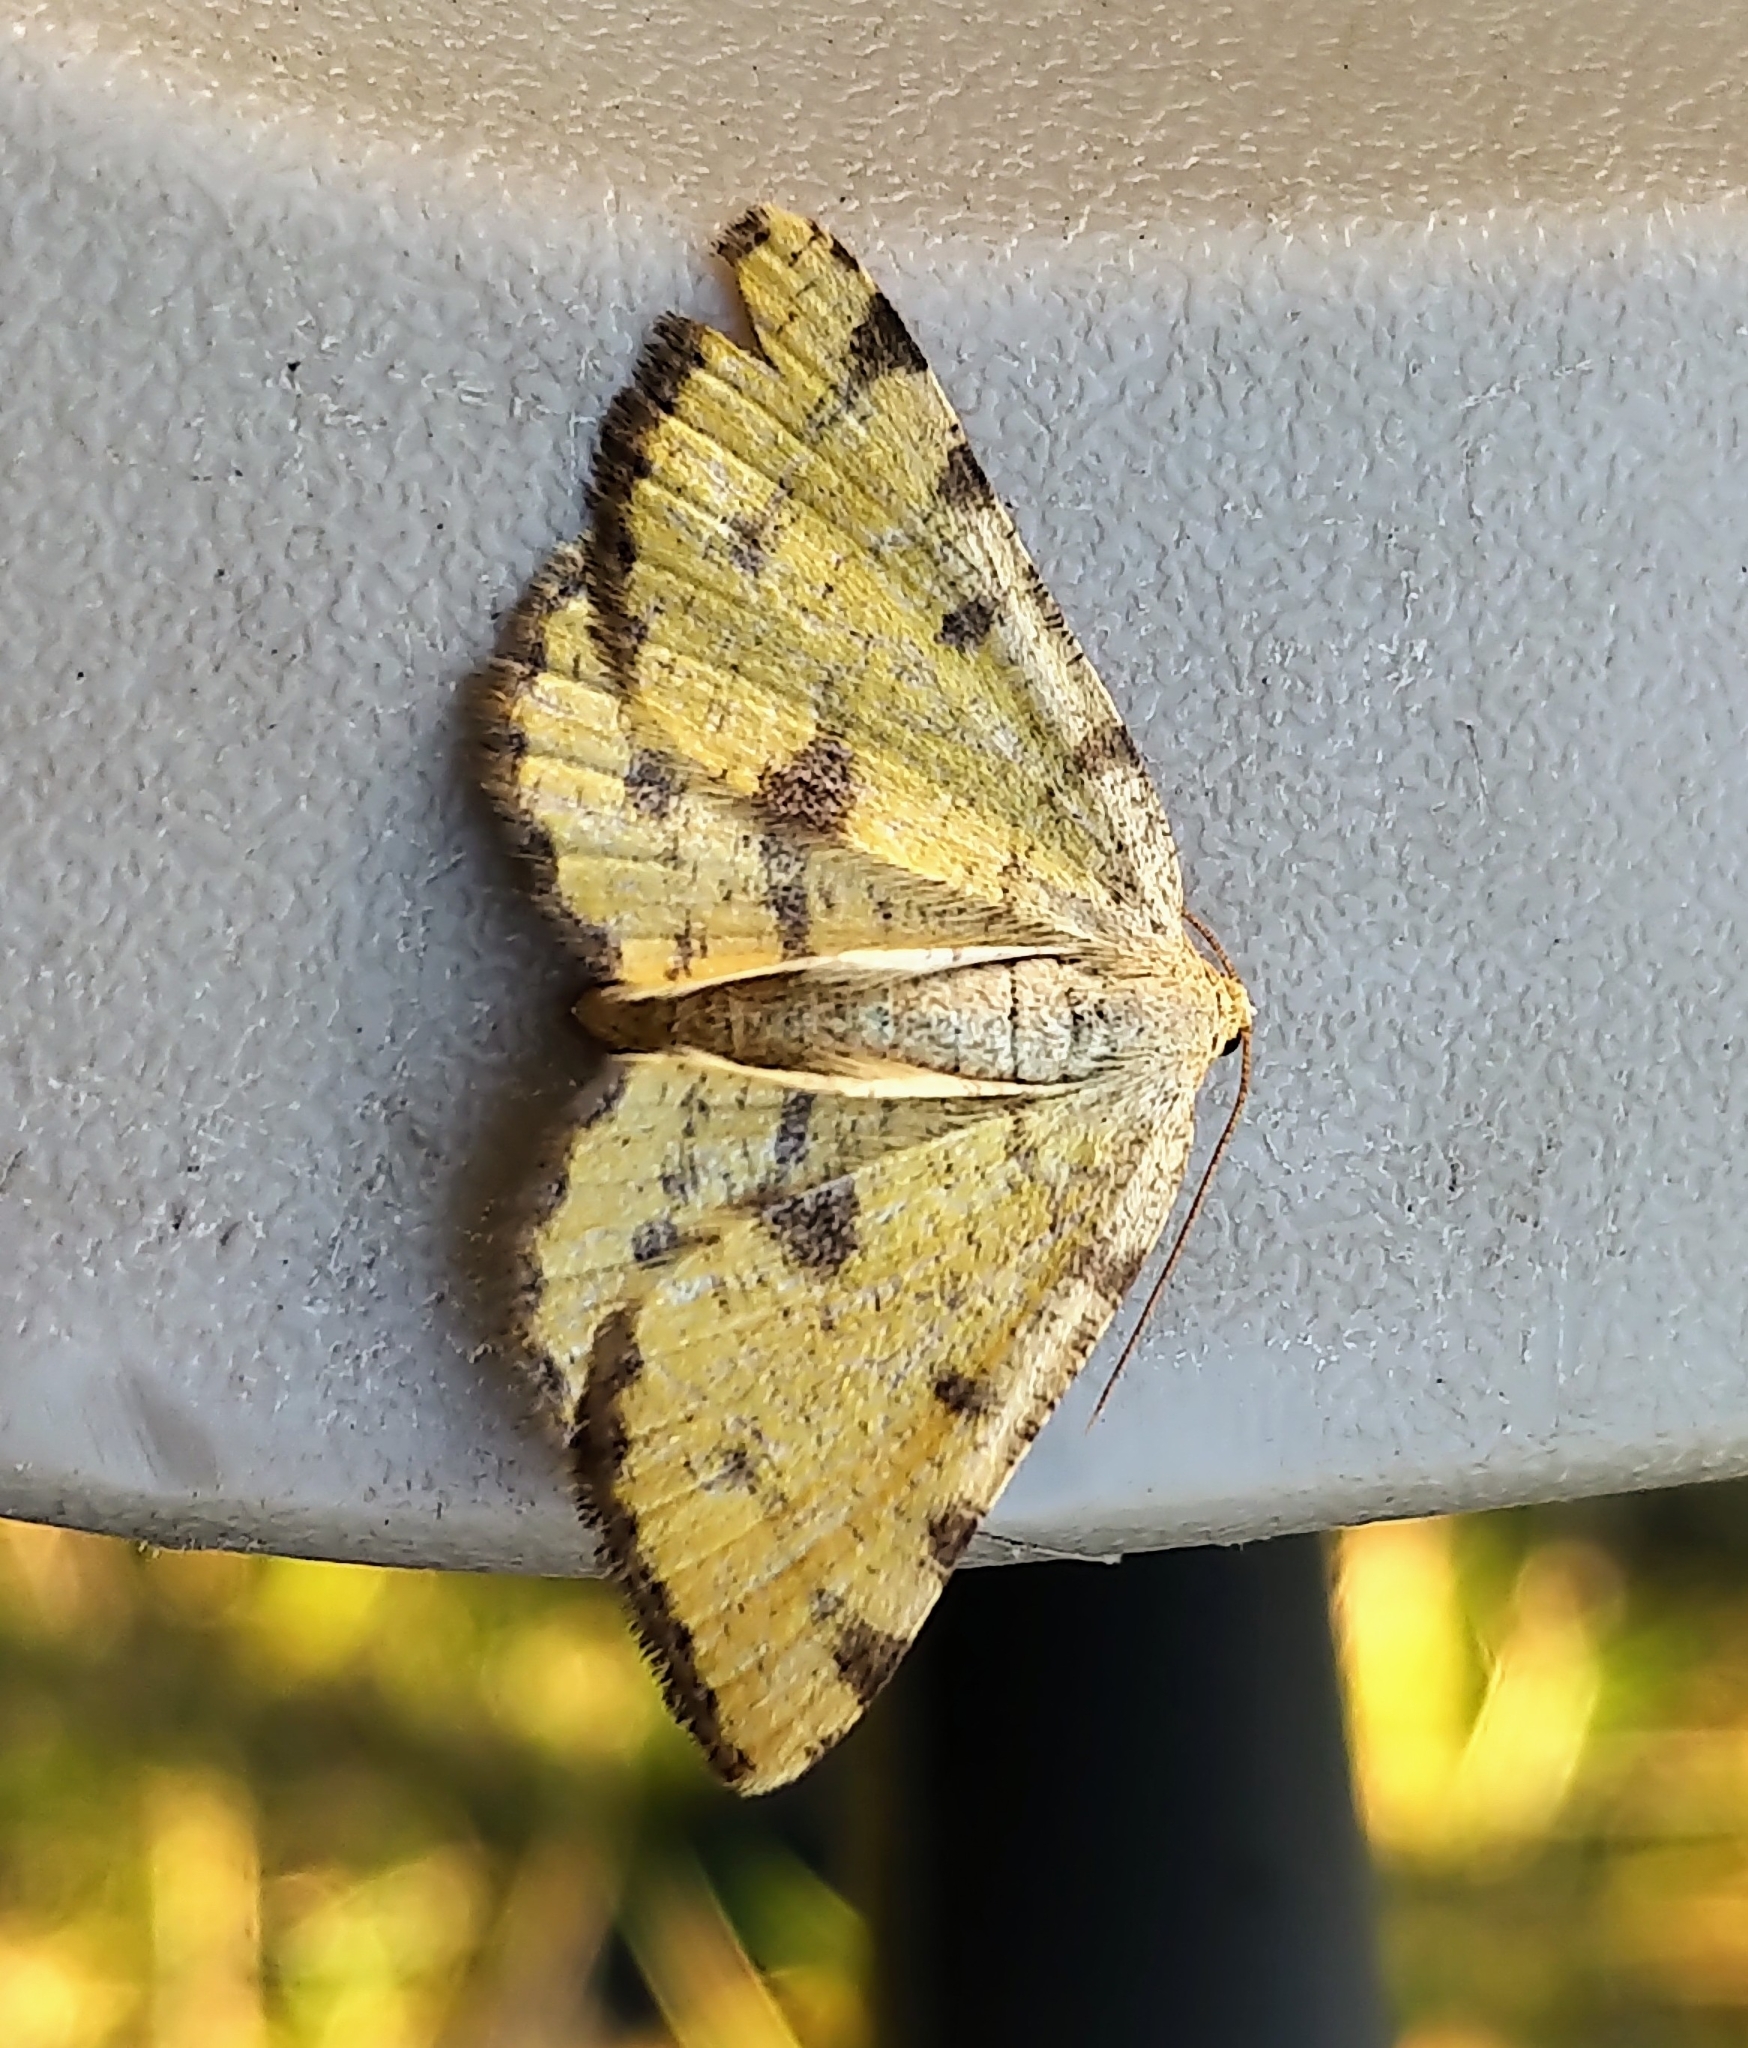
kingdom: Animalia
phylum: Arthropoda
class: Insecta
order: Lepidoptera
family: Geometridae
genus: Macaria
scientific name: Macaria amboflava
